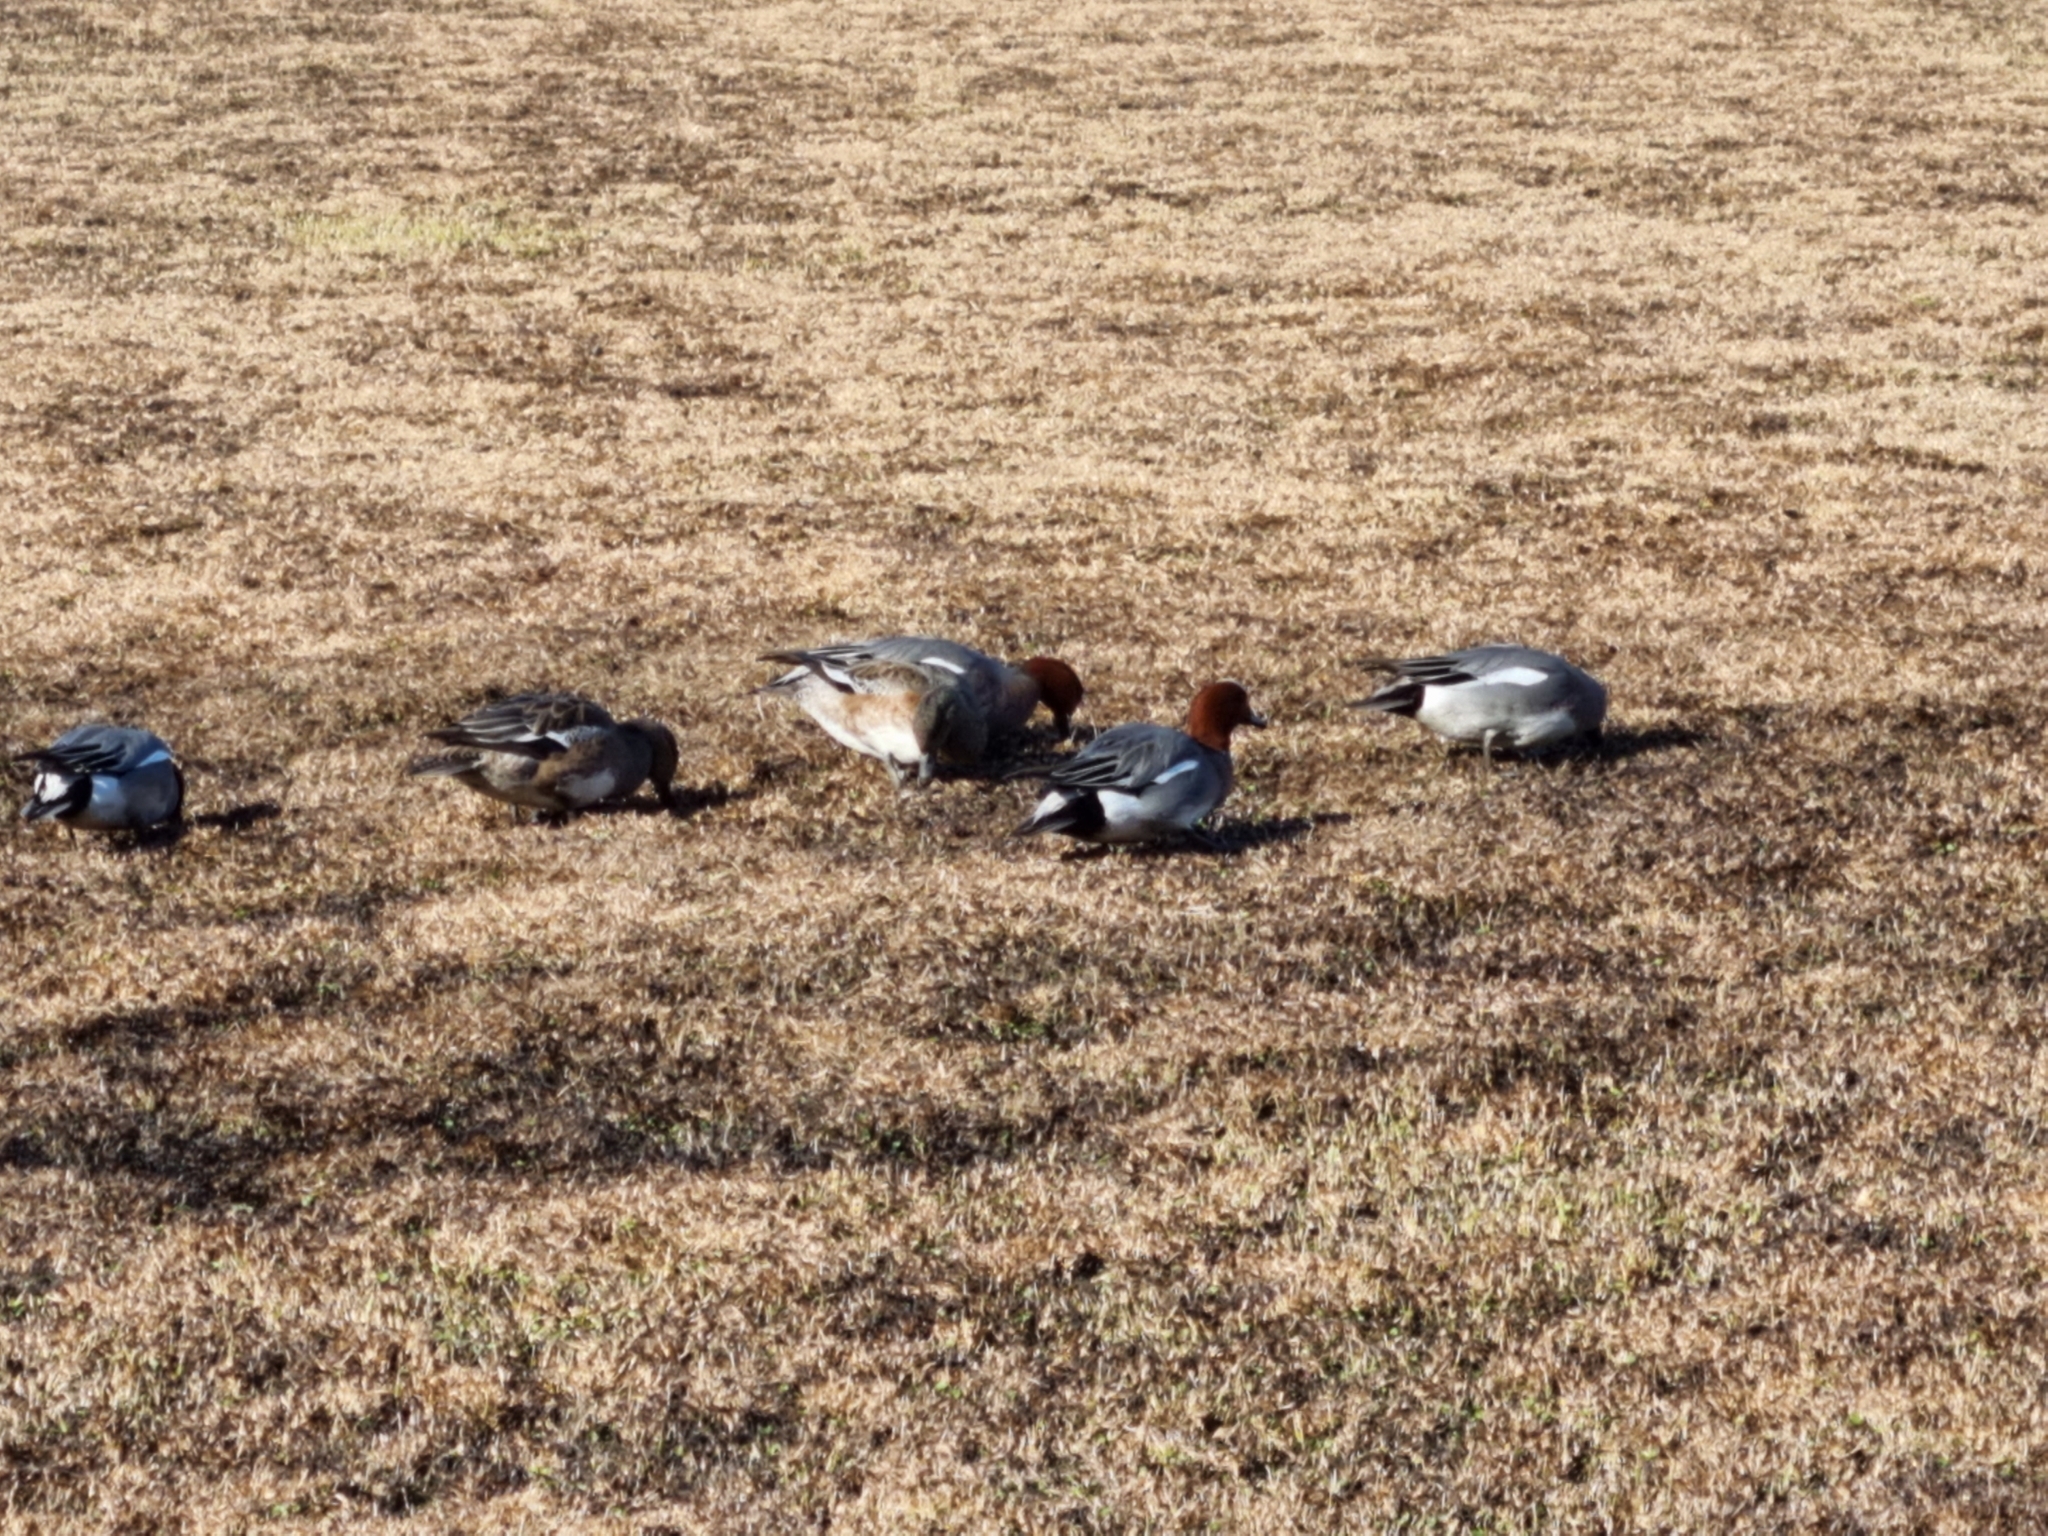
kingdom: Animalia
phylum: Chordata
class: Aves
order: Anseriformes
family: Anatidae
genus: Mareca
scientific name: Mareca penelope
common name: Eurasian wigeon
